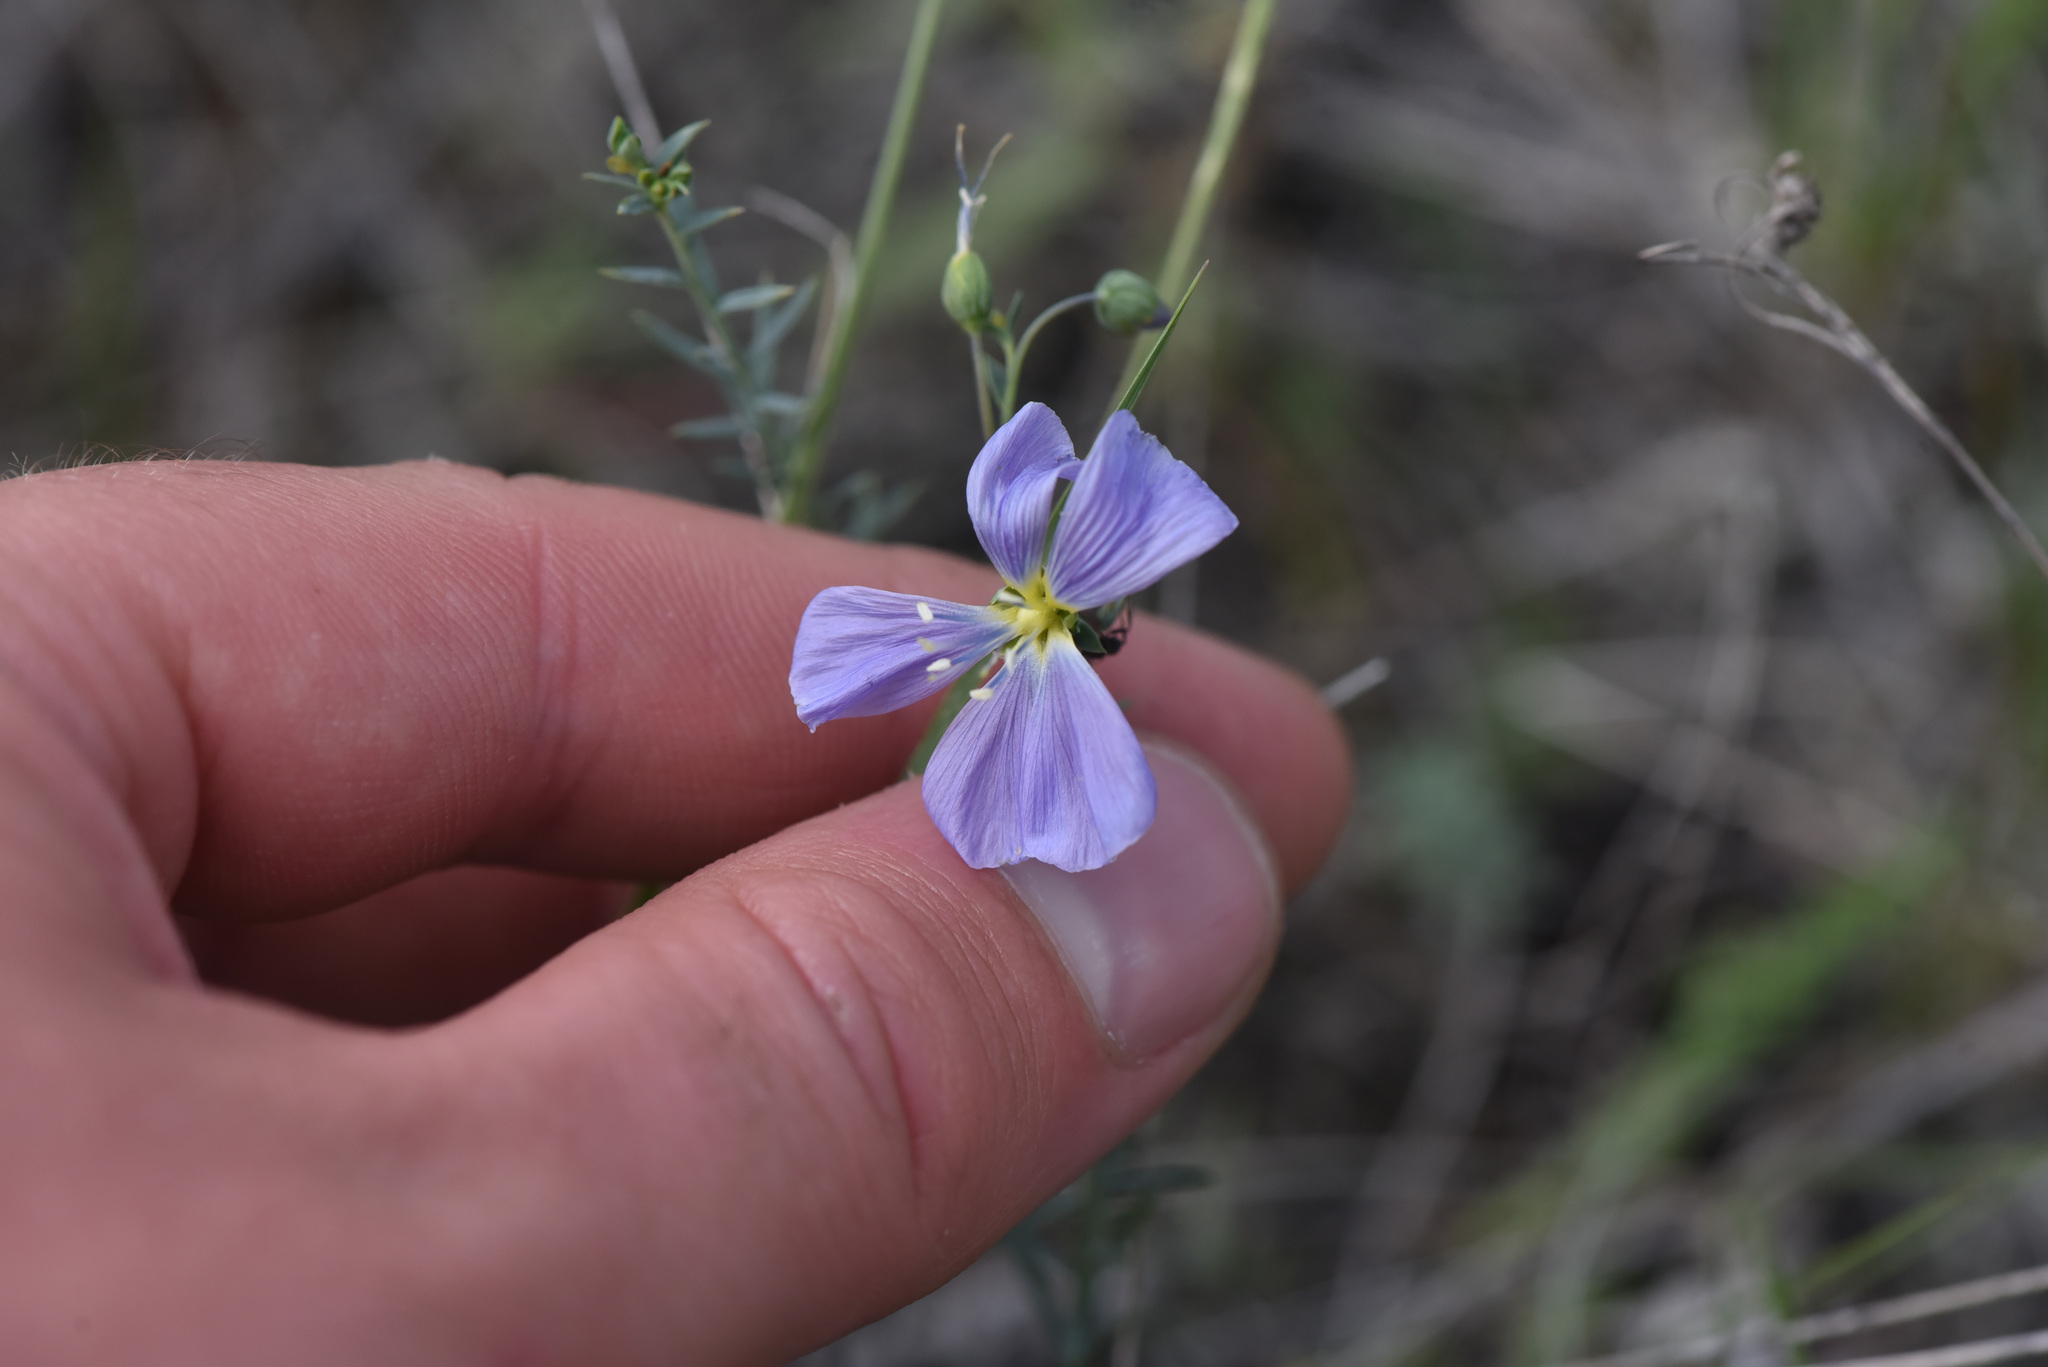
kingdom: Plantae
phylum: Tracheophyta
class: Magnoliopsida
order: Malpighiales
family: Linaceae
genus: Linum
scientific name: Linum lewisii
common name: Prairie flax
